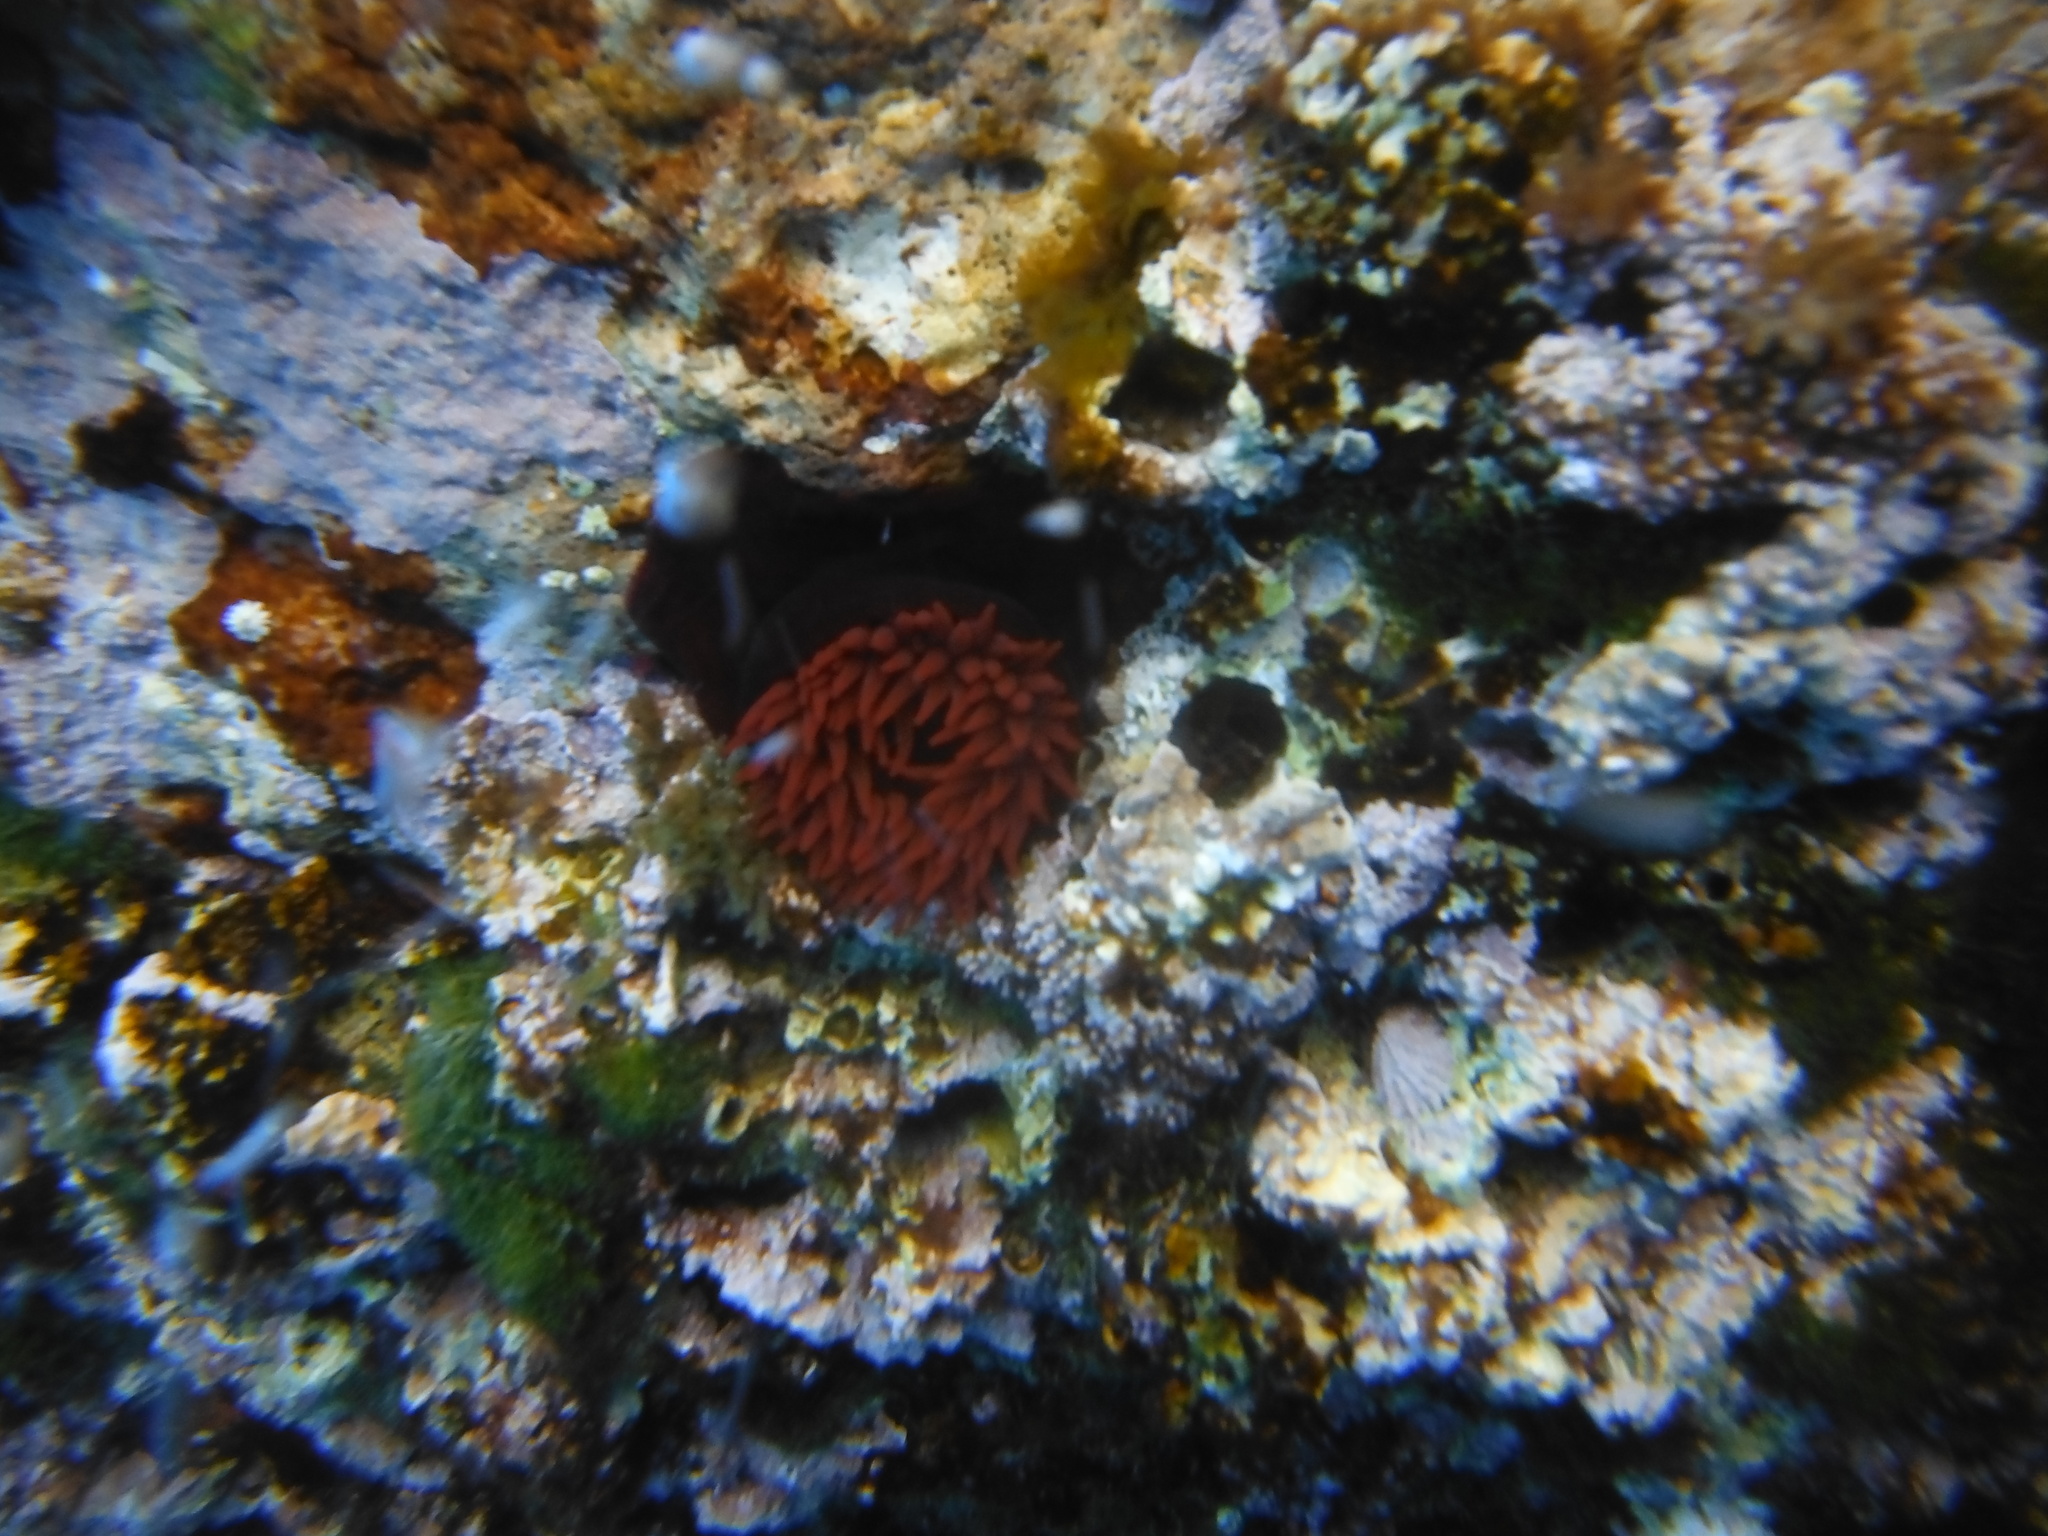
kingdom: Animalia
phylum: Cnidaria
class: Anthozoa
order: Actiniaria
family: Actiniidae
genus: Actinia
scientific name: Actinia tenebrosa
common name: Waratah anemone
